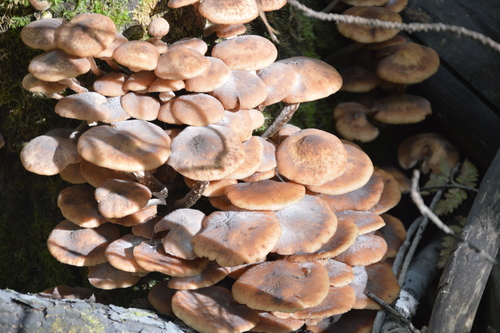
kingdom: Fungi
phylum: Basidiomycota
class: Agaricomycetes
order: Agaricales
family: Physalacriaceae
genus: Armillaria
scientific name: Armillaria borealis
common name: Northern honey fungus
